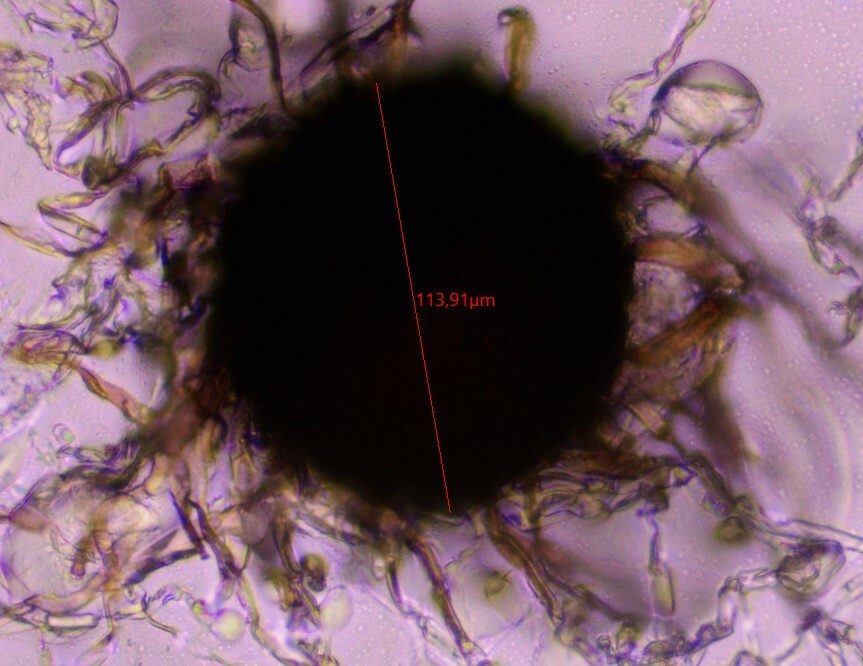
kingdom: Fungi
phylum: Ascomycota
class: Leotiomycetes
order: Helotiales
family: Erysiphaceae
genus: Golovinomyces
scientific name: Golovinomyces depressus
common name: Burdock mildew
